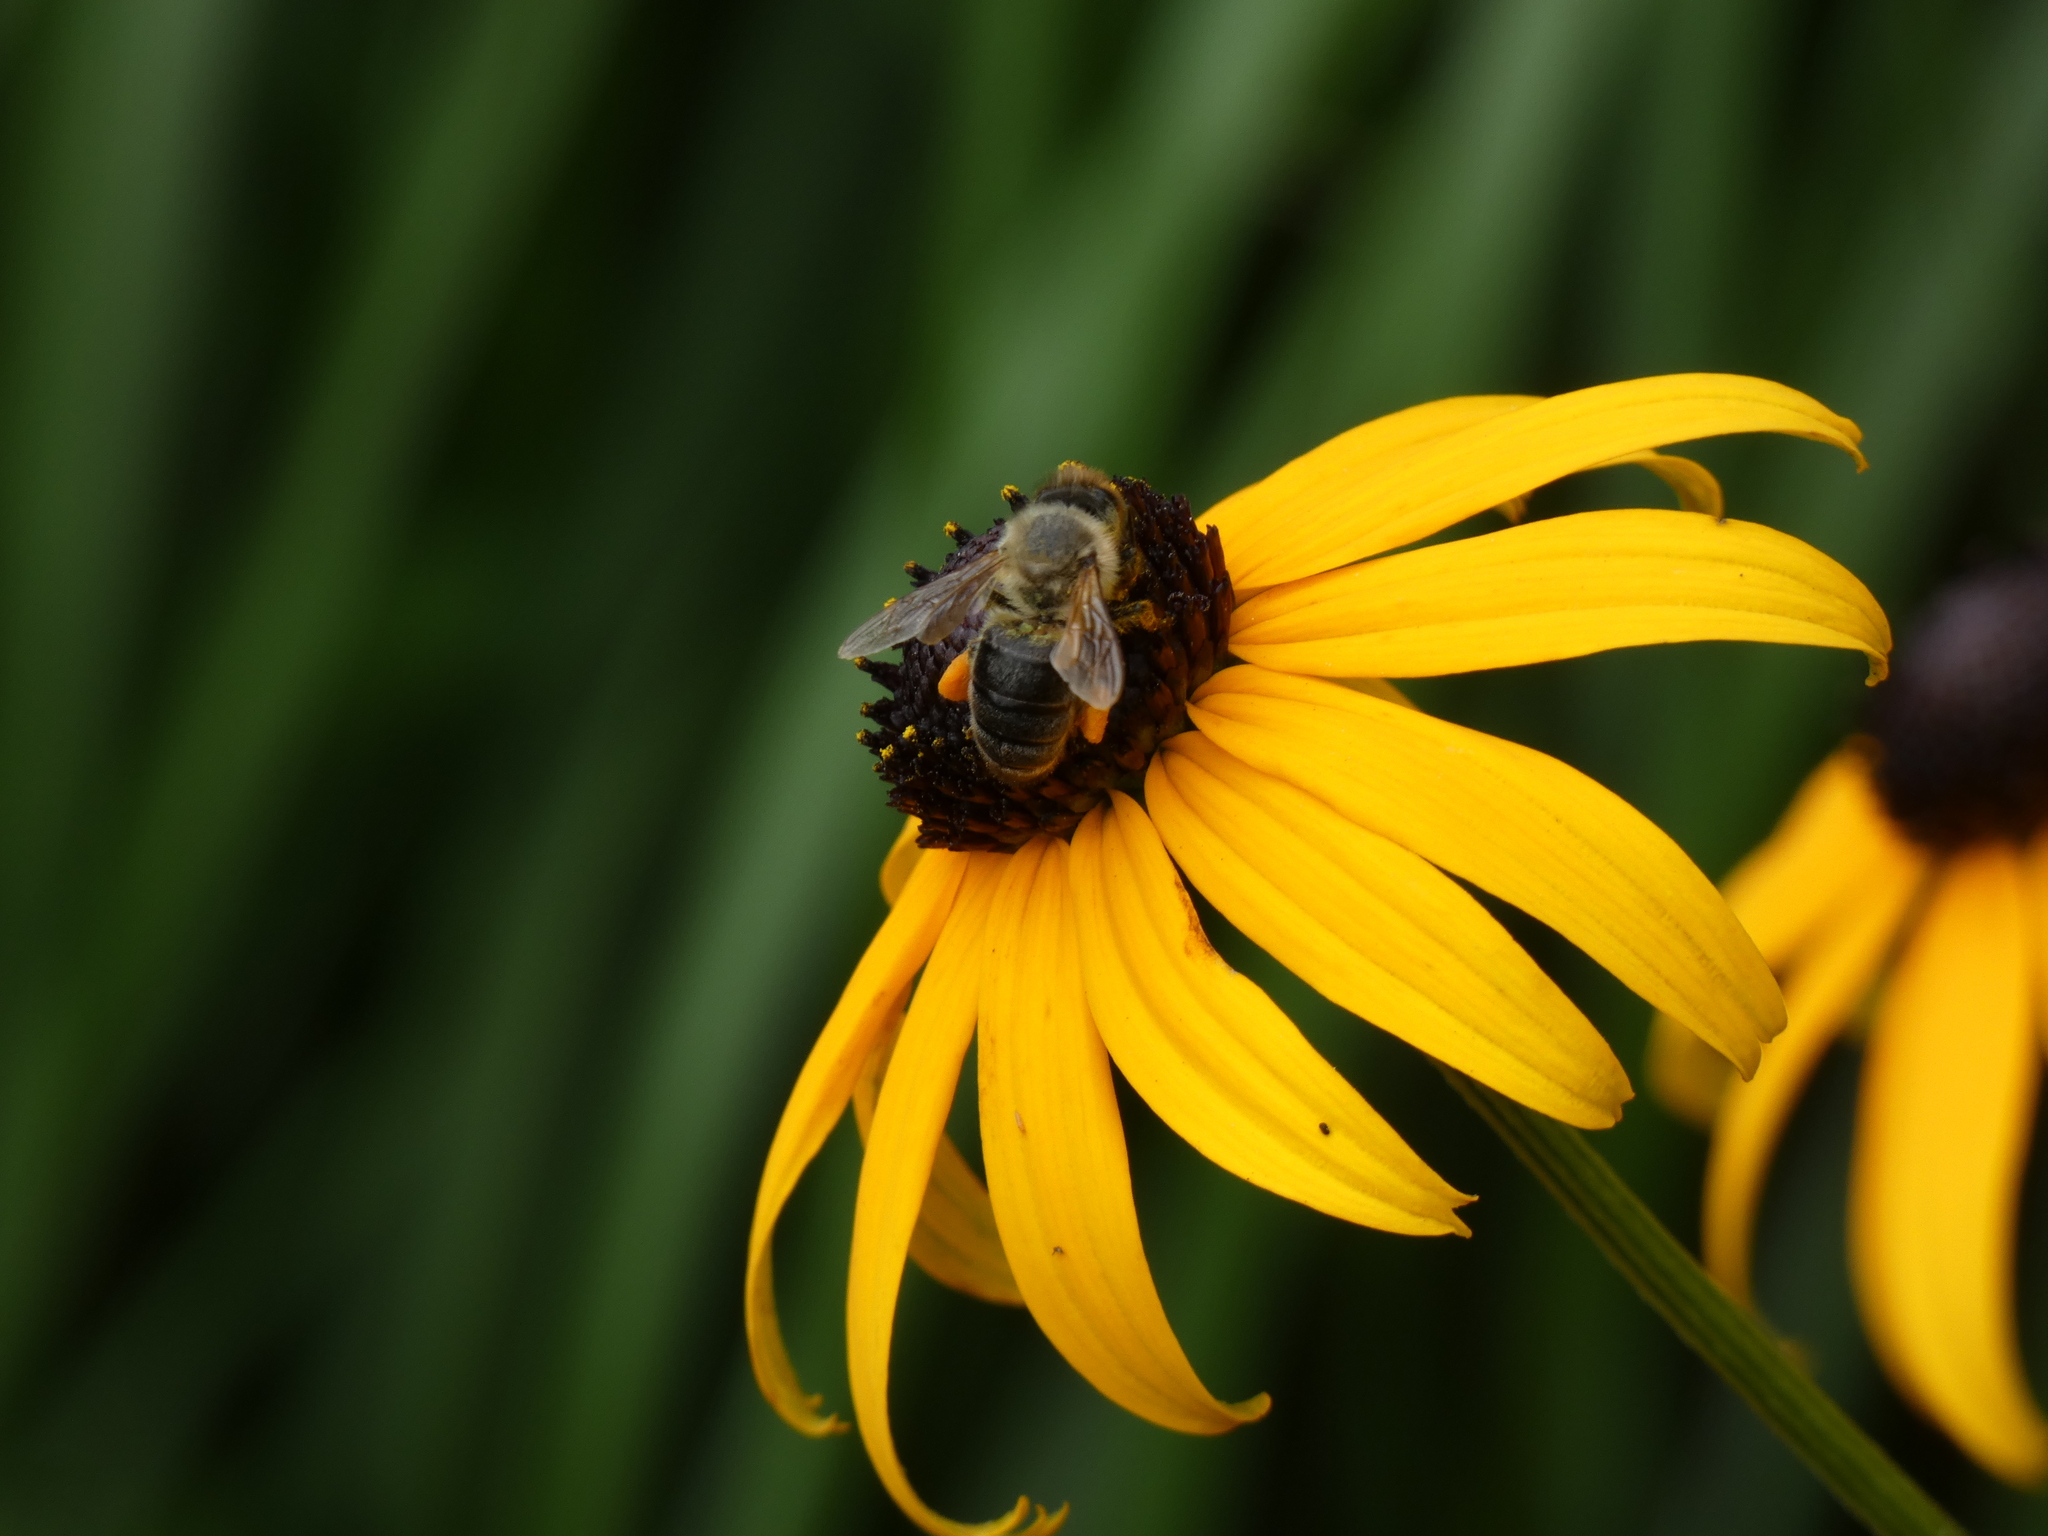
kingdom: Animalia
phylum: Arthropoda
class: Insecta
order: Hymenoptera
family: Apidae
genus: Apis
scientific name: Apis mellifera
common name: Honey bee
